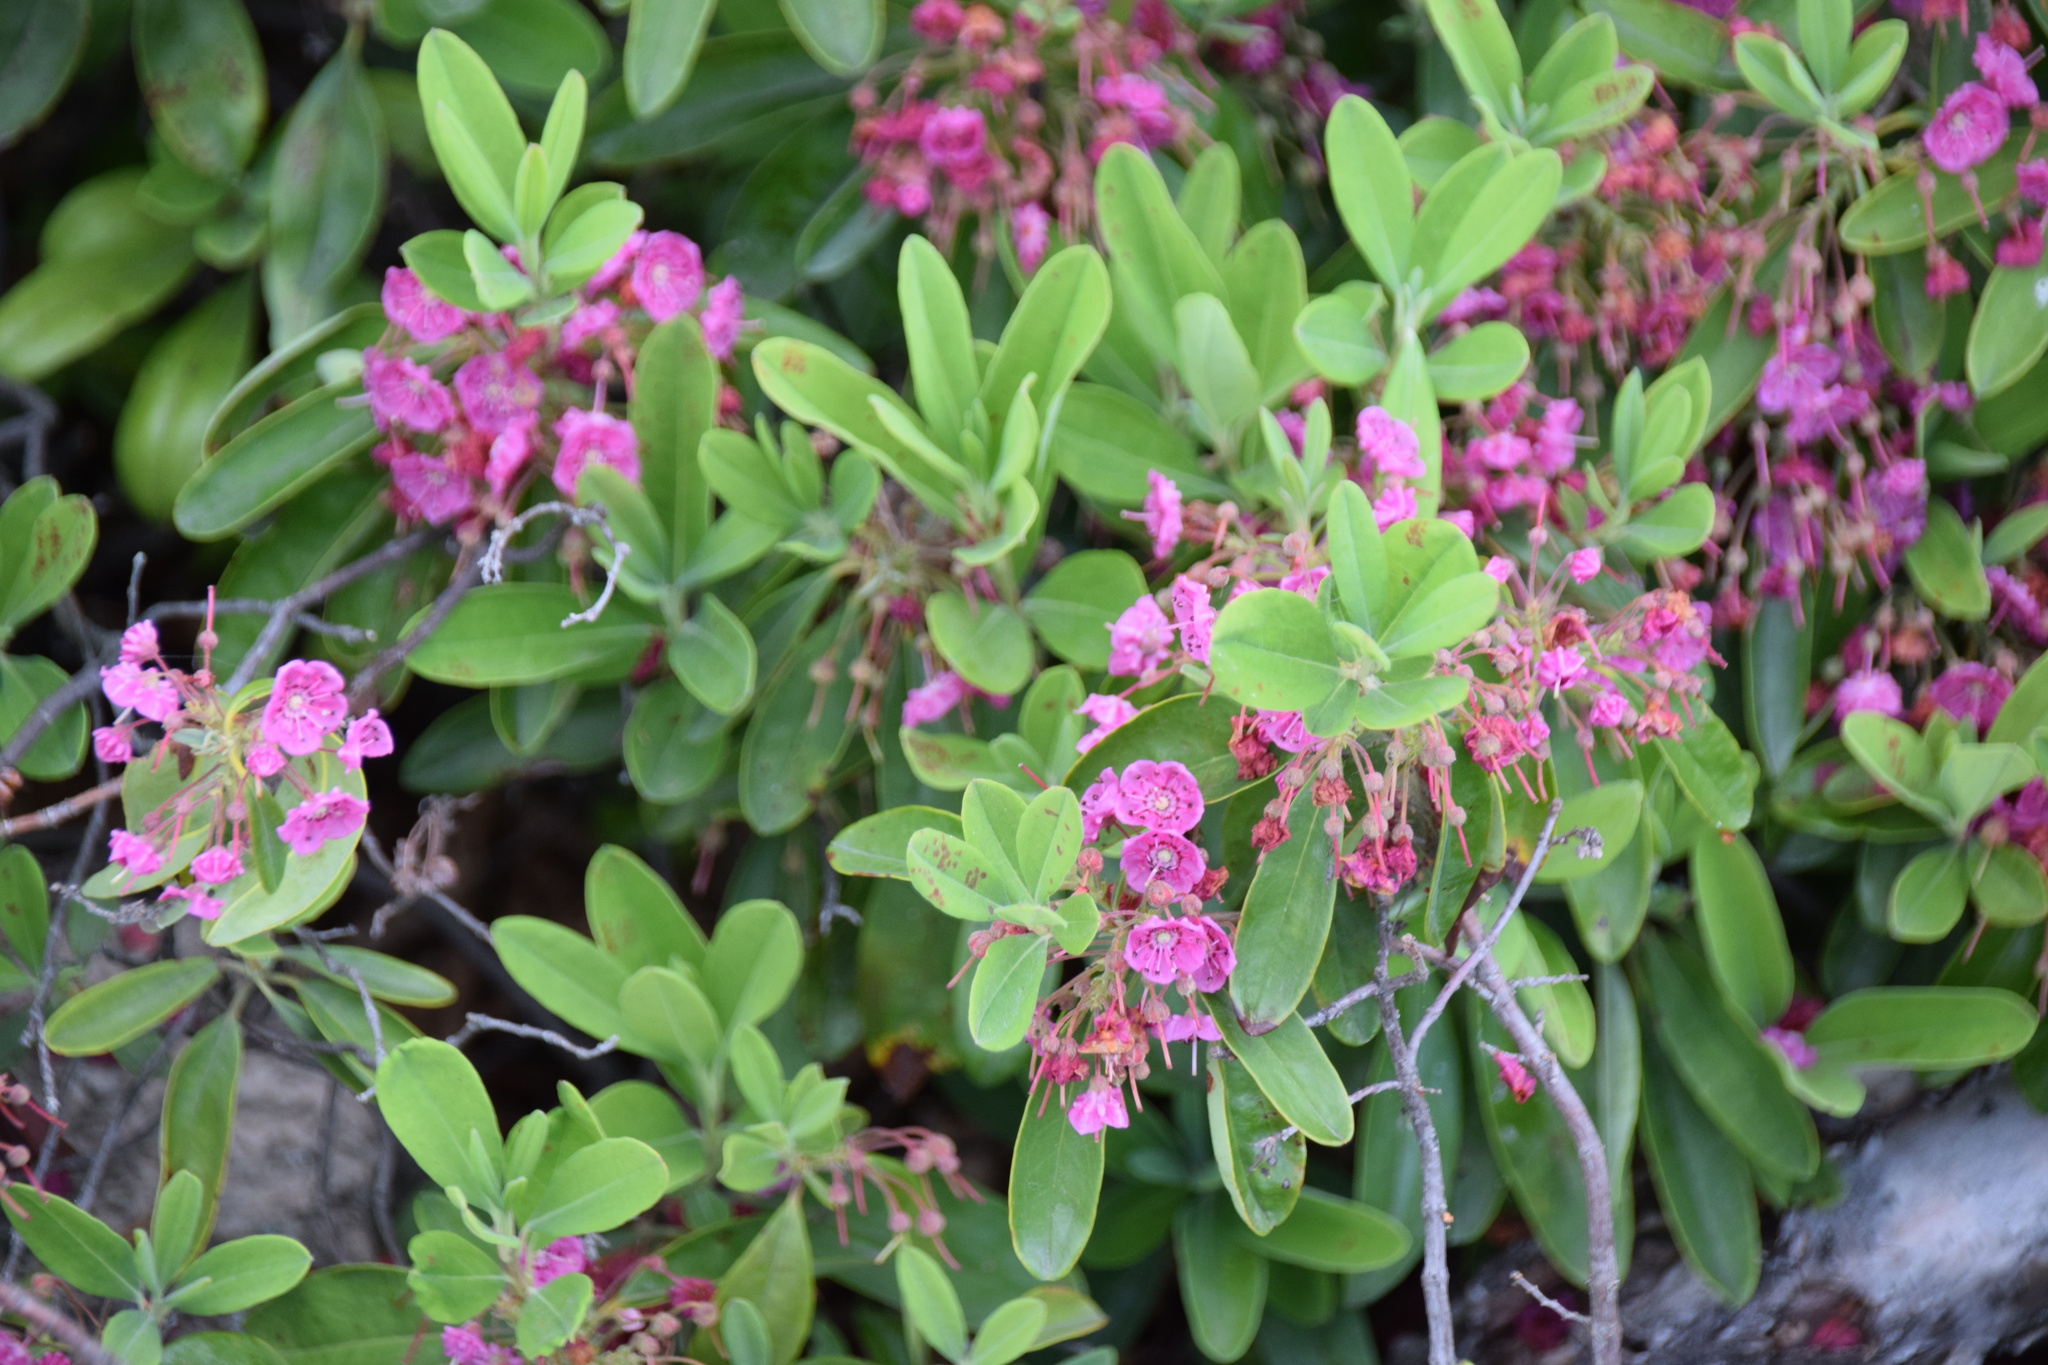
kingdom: Plantae
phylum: Tracheophyta
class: Magnoliopsida
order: Ericales
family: Ericaceae
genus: Kalmia
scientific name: Kalmia angustifolia
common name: Sheep-laurel
